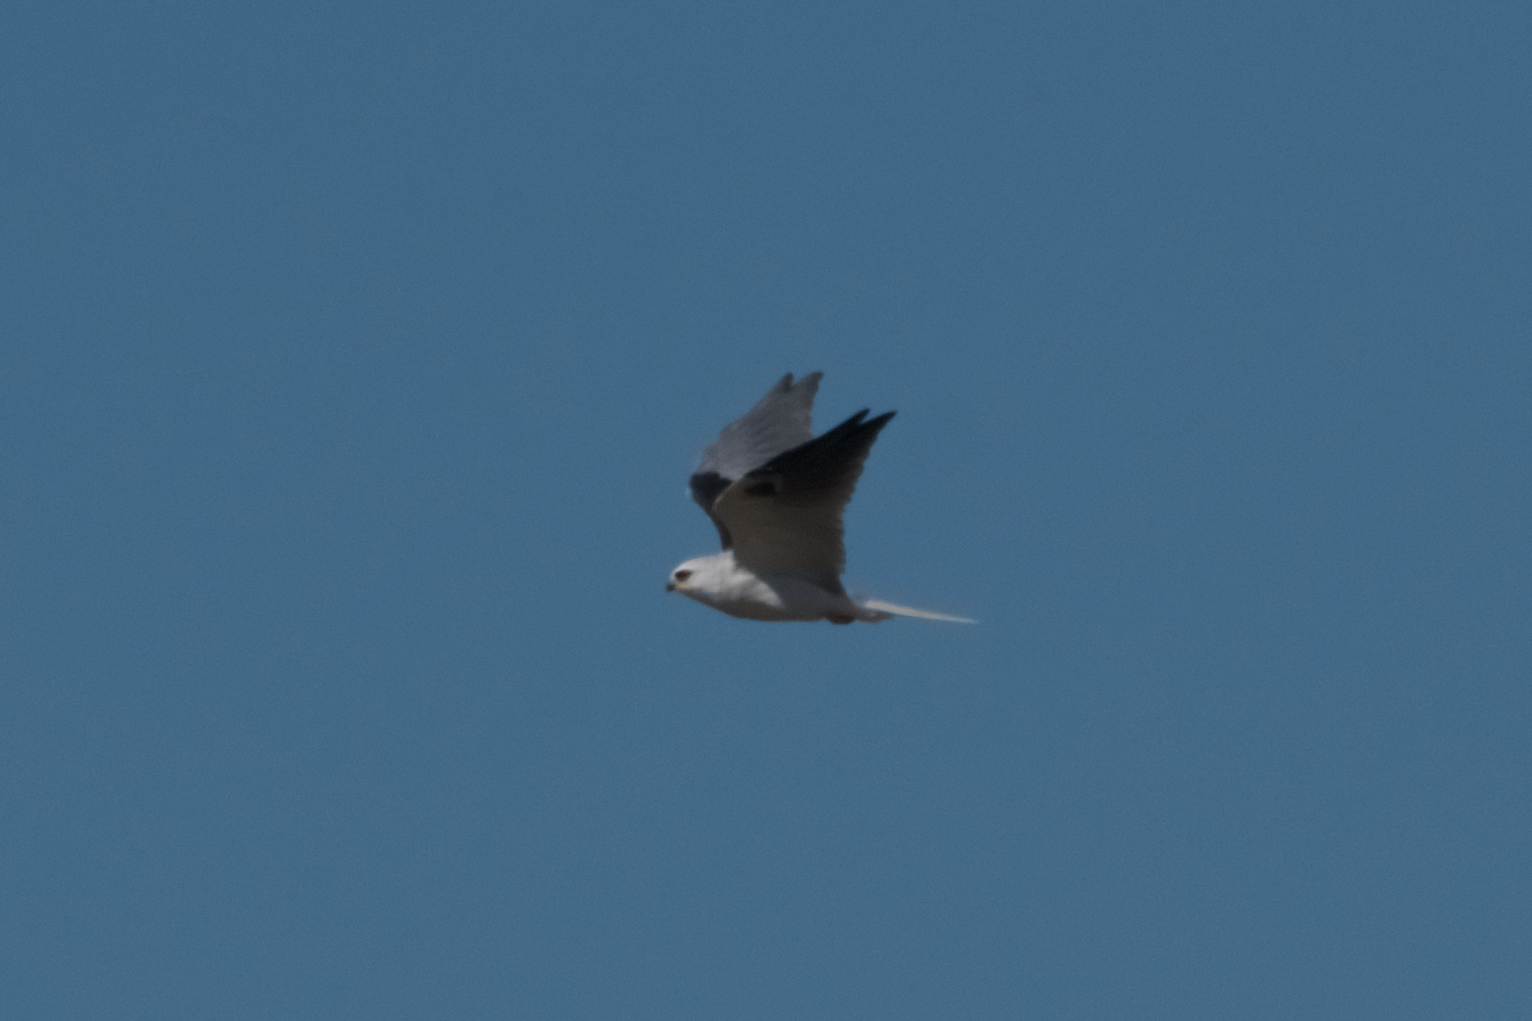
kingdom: Animalia
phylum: Chordata
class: Aves
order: Accipitriformes
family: Accipitridae
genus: Elanus
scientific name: Elanus leucurus
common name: White-tailed kite
